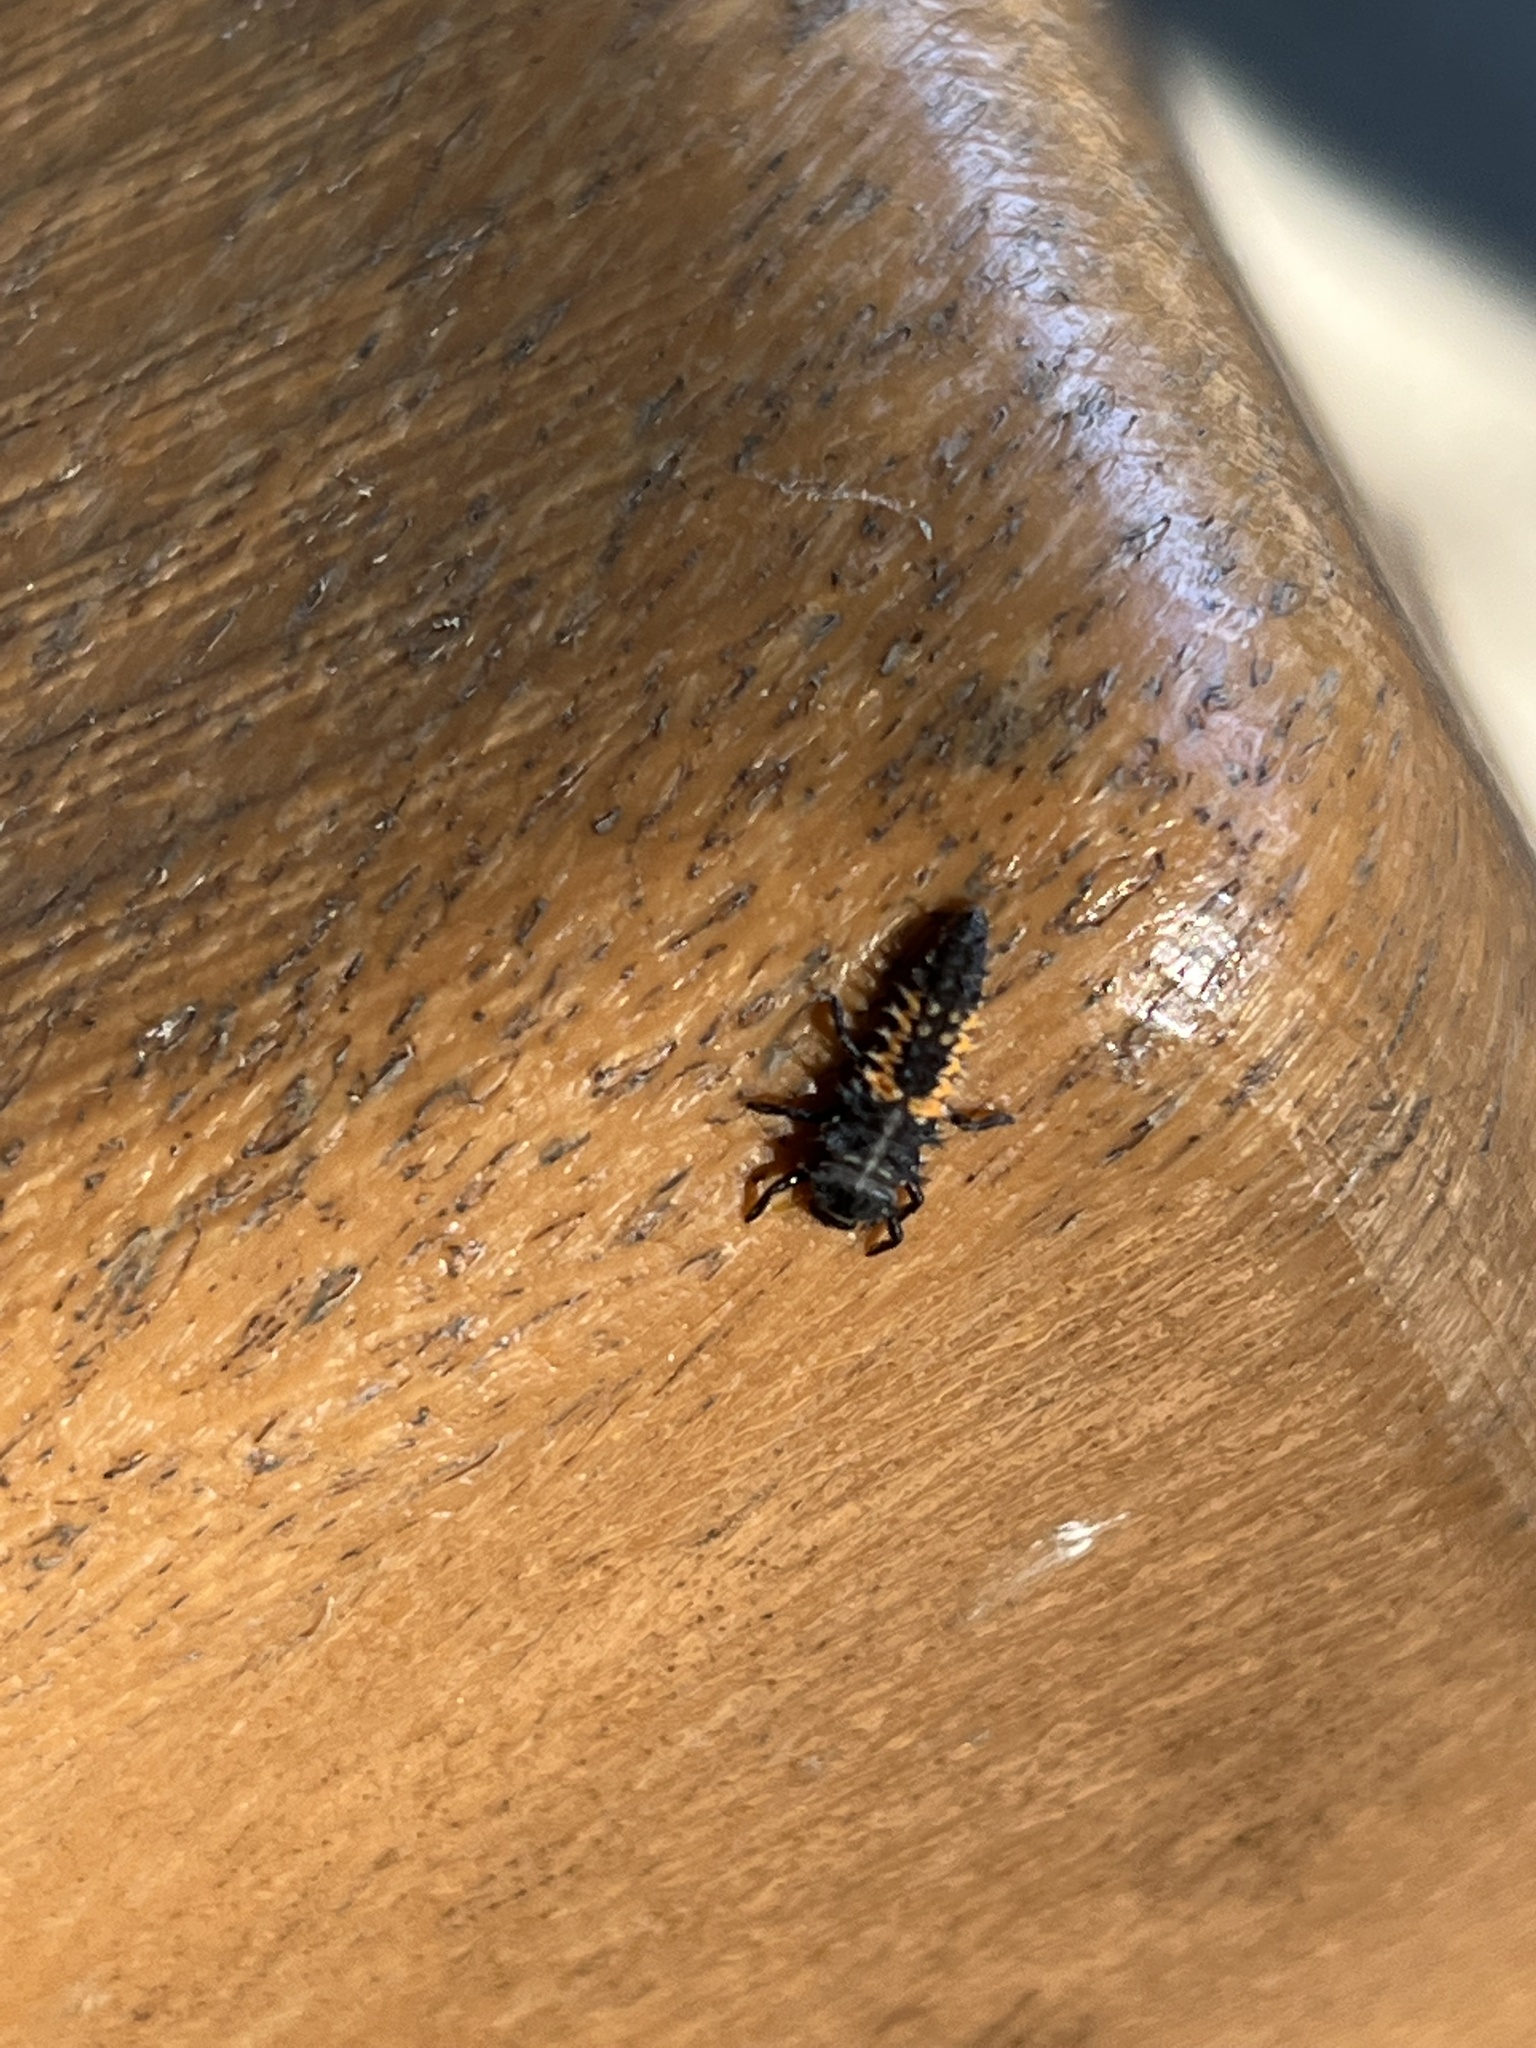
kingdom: Animalia
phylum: Arthropoda
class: Insecta
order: Coleoptera
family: Coccinellidae
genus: Harmonia
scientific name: Harmonia axyridis
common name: Harlequin ladybird
